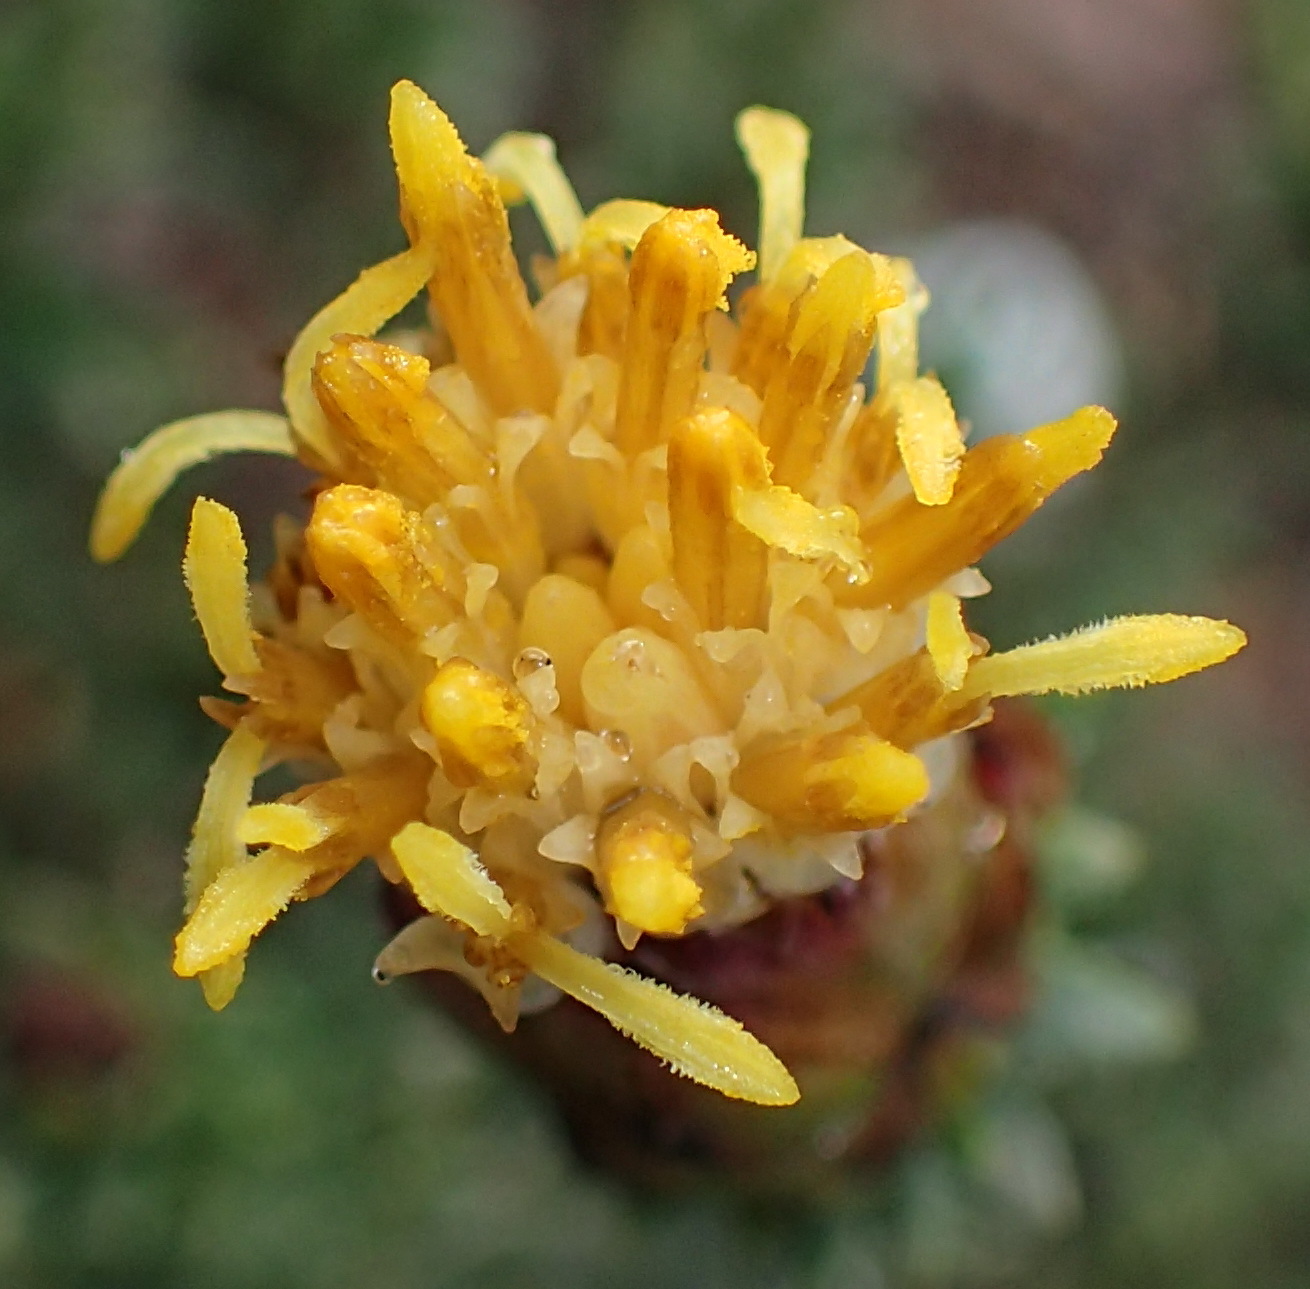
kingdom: Plantae
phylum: Tracheophyta
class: Magnoliopsida
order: Asterales
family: Asteraceae
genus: Pteronia
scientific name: Pteronia staehelinoides
